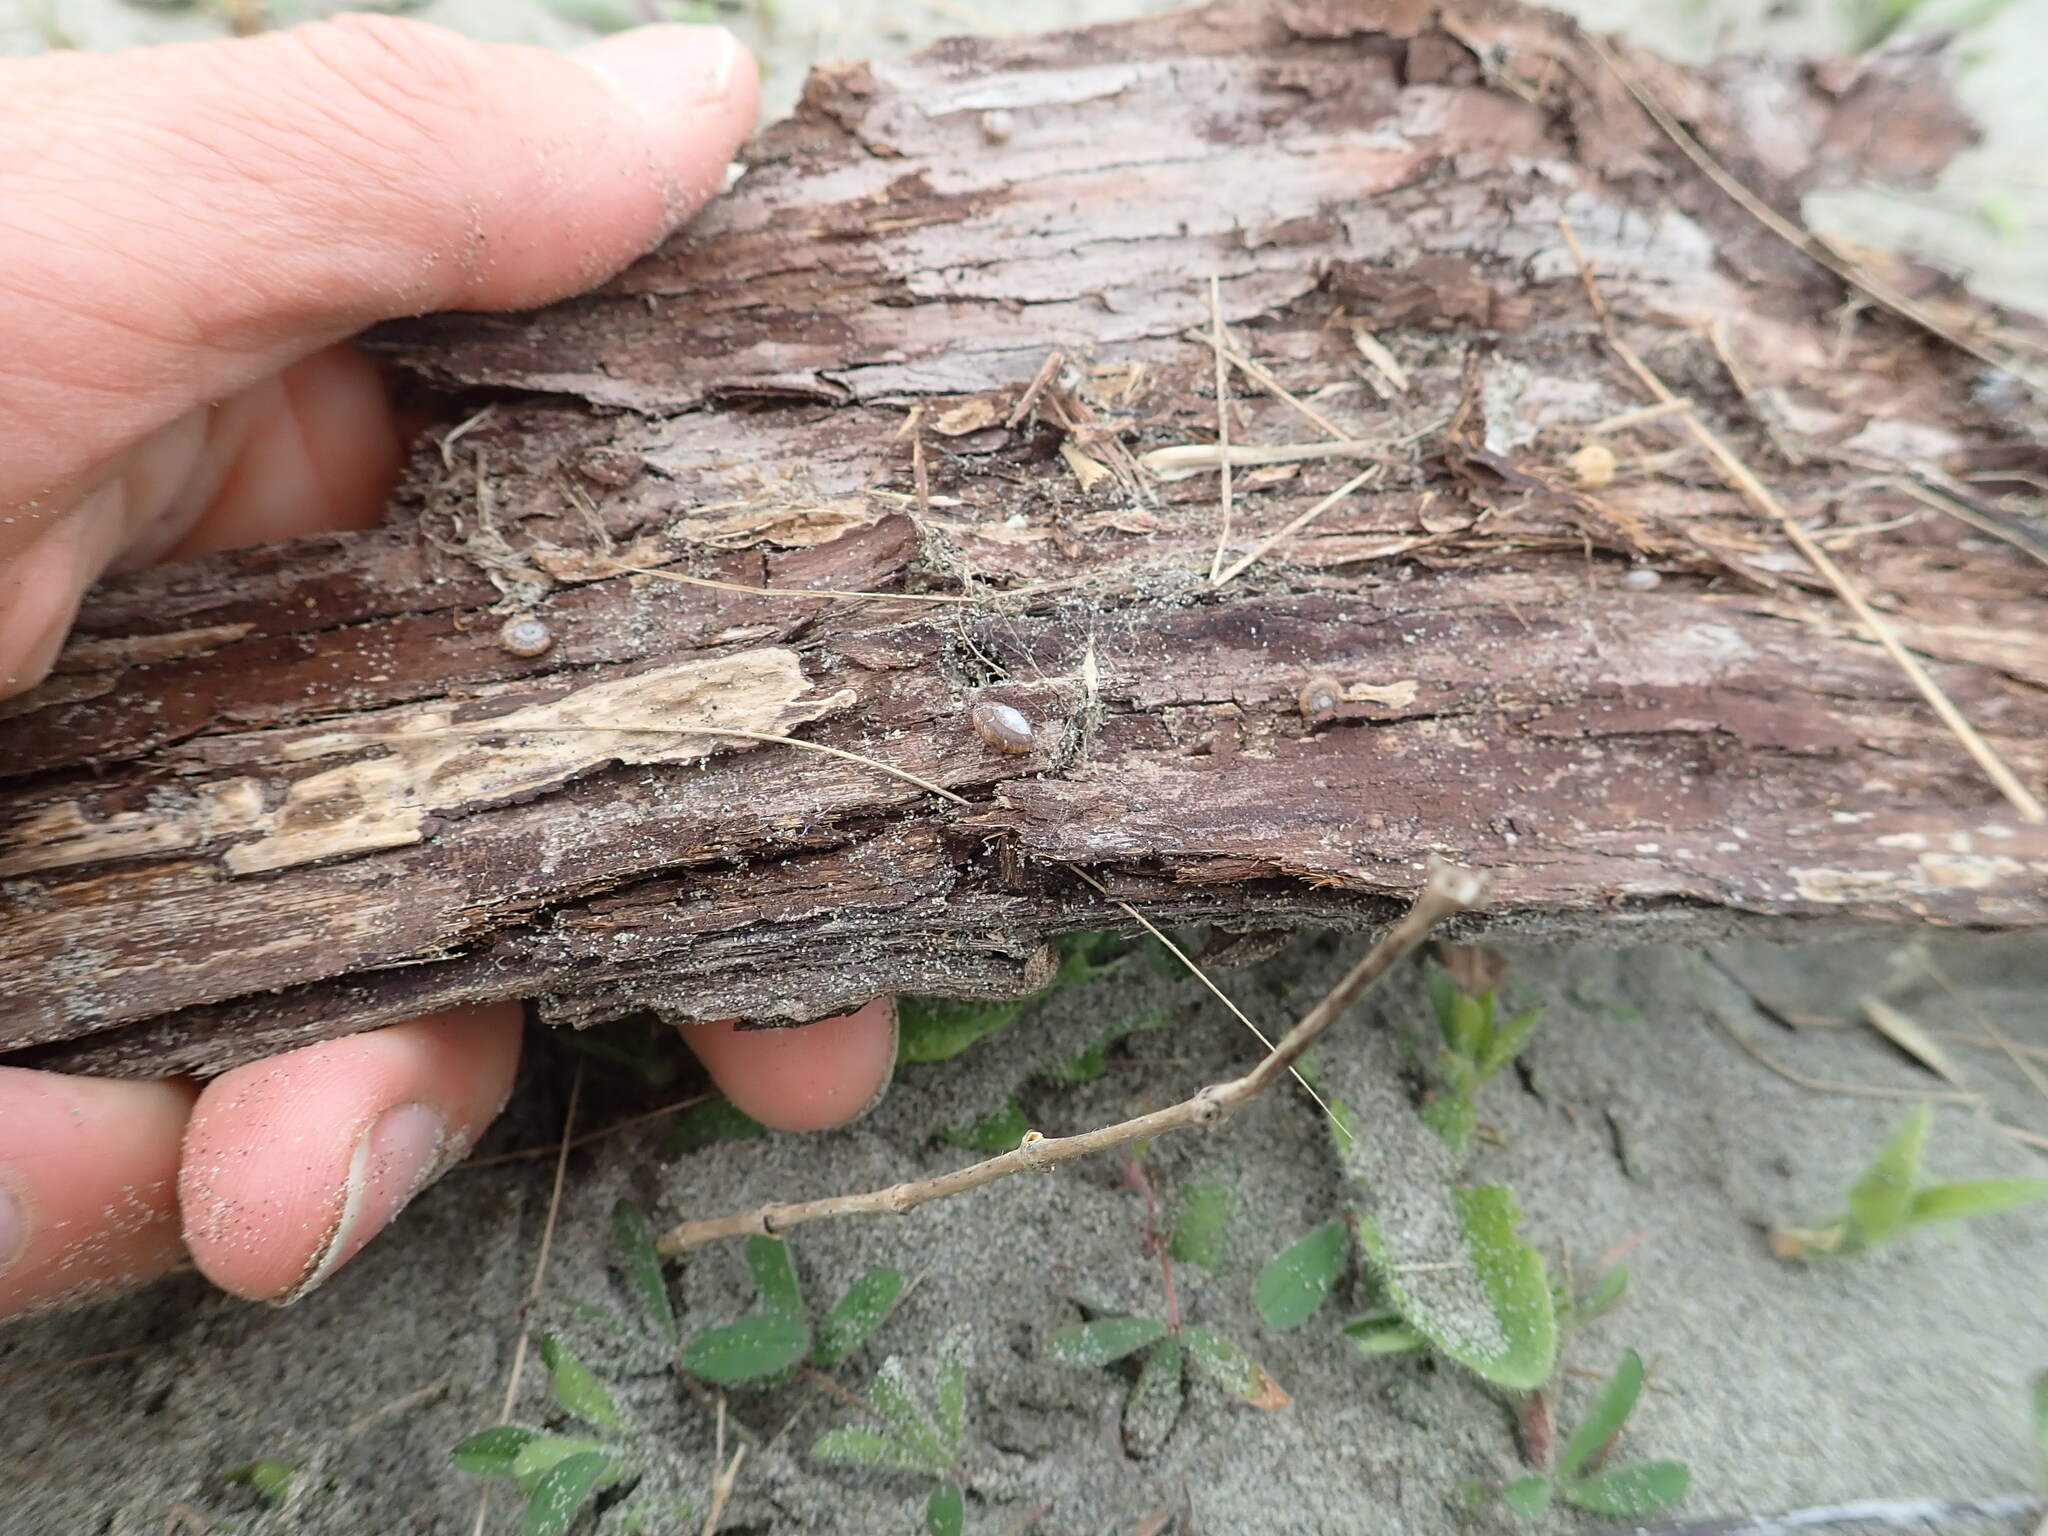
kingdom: Animalia
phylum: Mollusca
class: Gastropoda
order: Stylommatophora
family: Geomitridae
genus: Xeroplexa
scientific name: Xeroplexa intersecta
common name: Wrinkled snail
